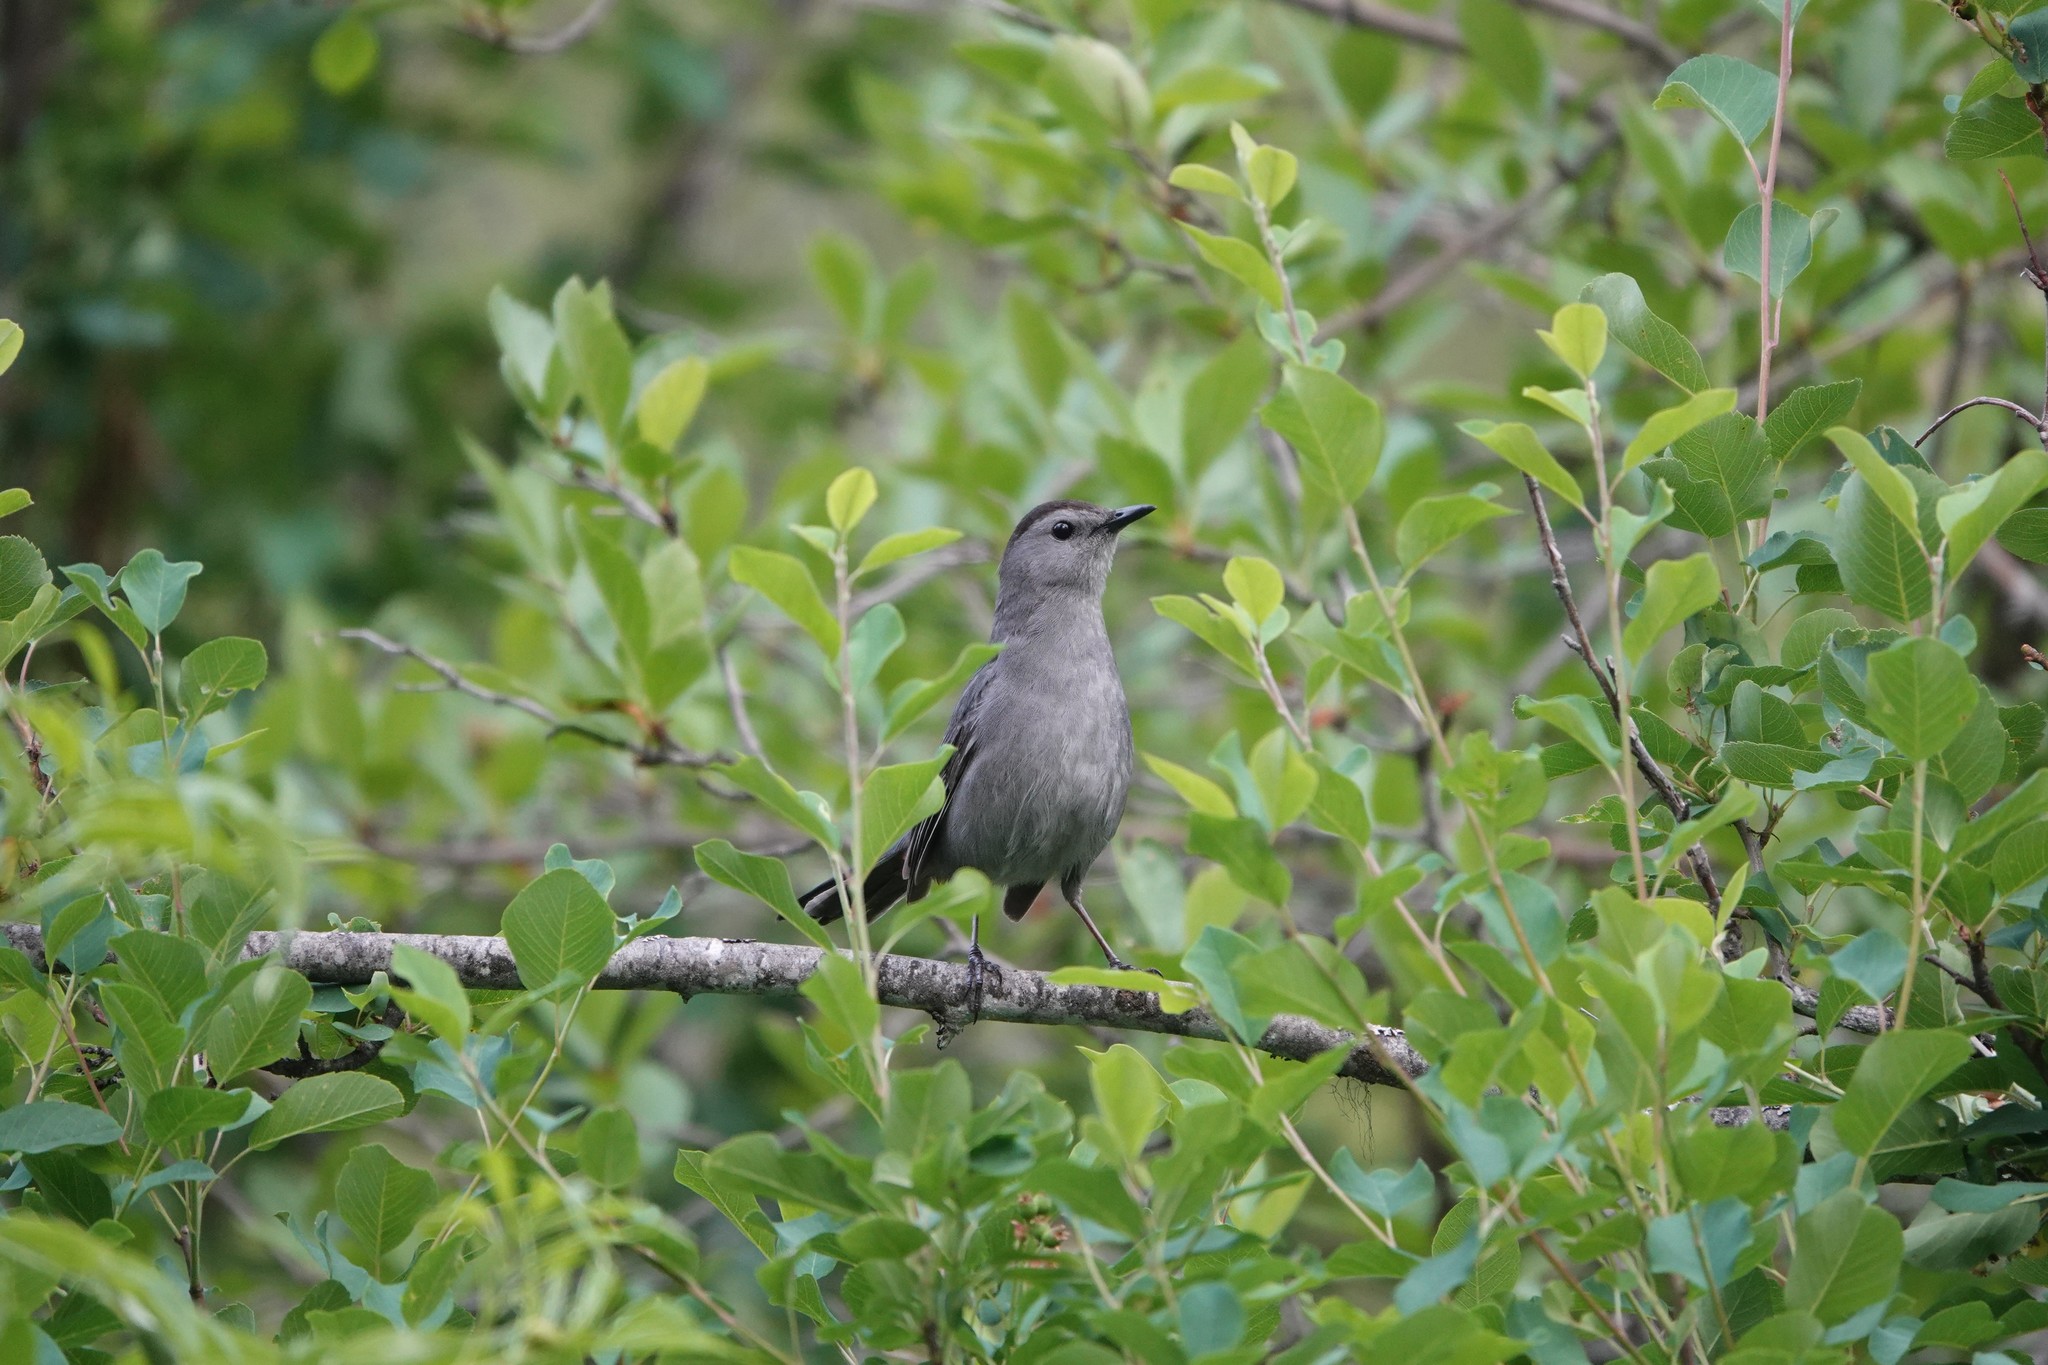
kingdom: Animalia
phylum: Chordata
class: Aves
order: Passeriformes
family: Mimidae
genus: Dumetella
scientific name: Dumetella carolinensis
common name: Gray catbird
